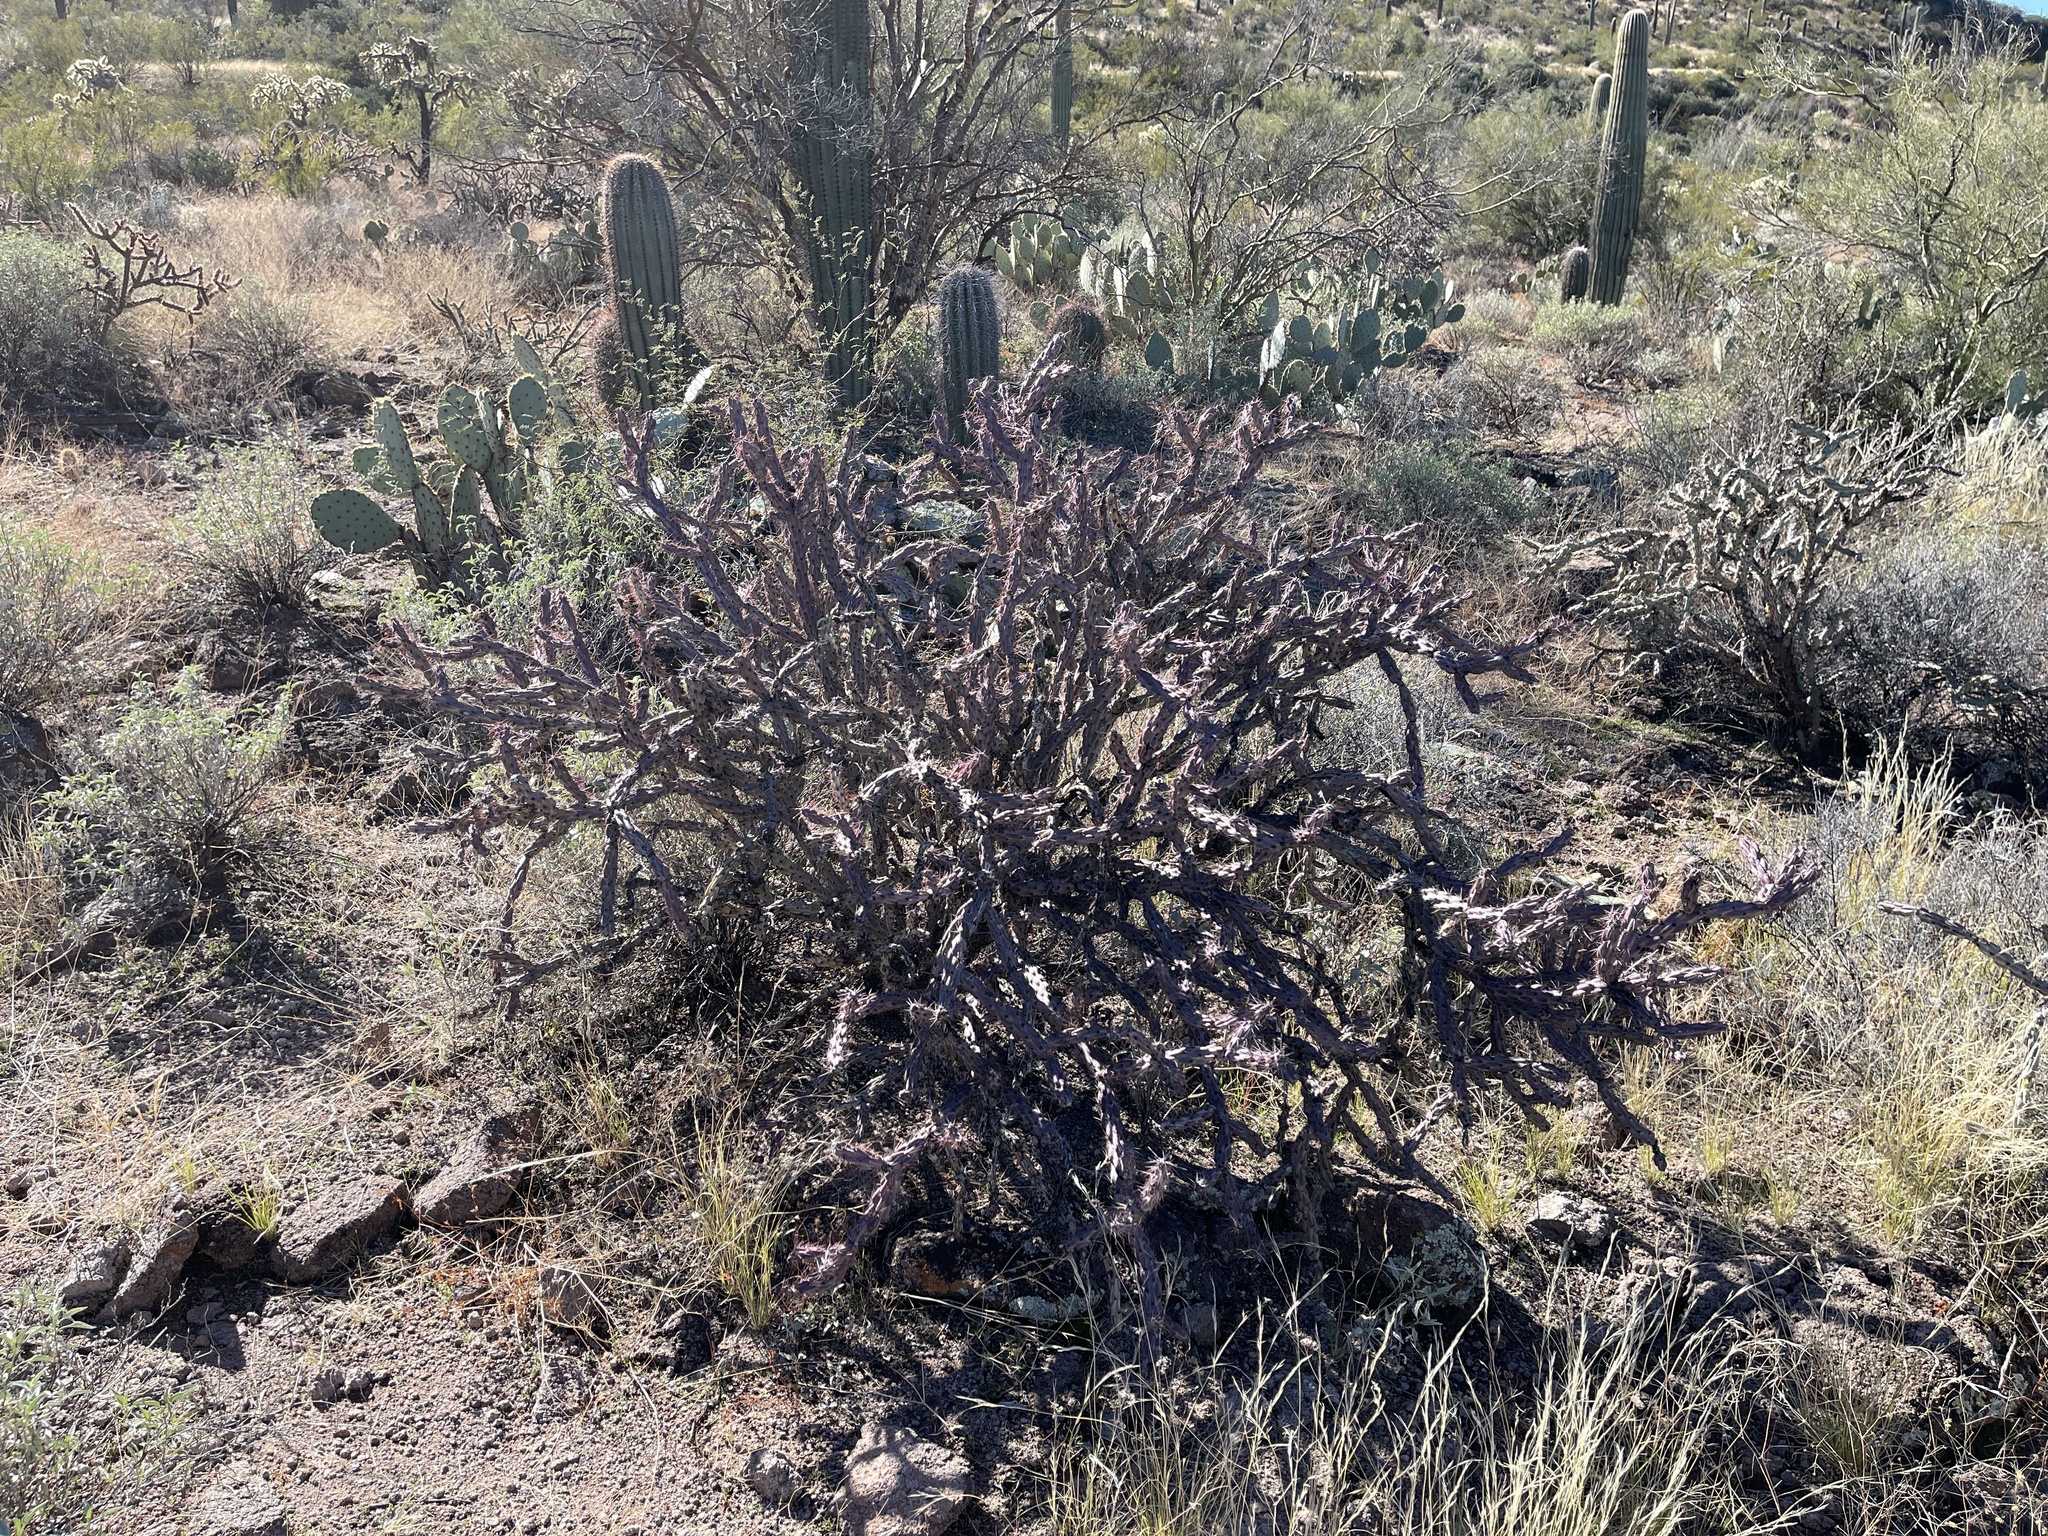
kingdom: Plantae
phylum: Tracheophyta
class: Magnoliopsida
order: Caryophyllales
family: Cactaceae
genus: Cylindropuntia
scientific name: Cylindropuntia thurberi
